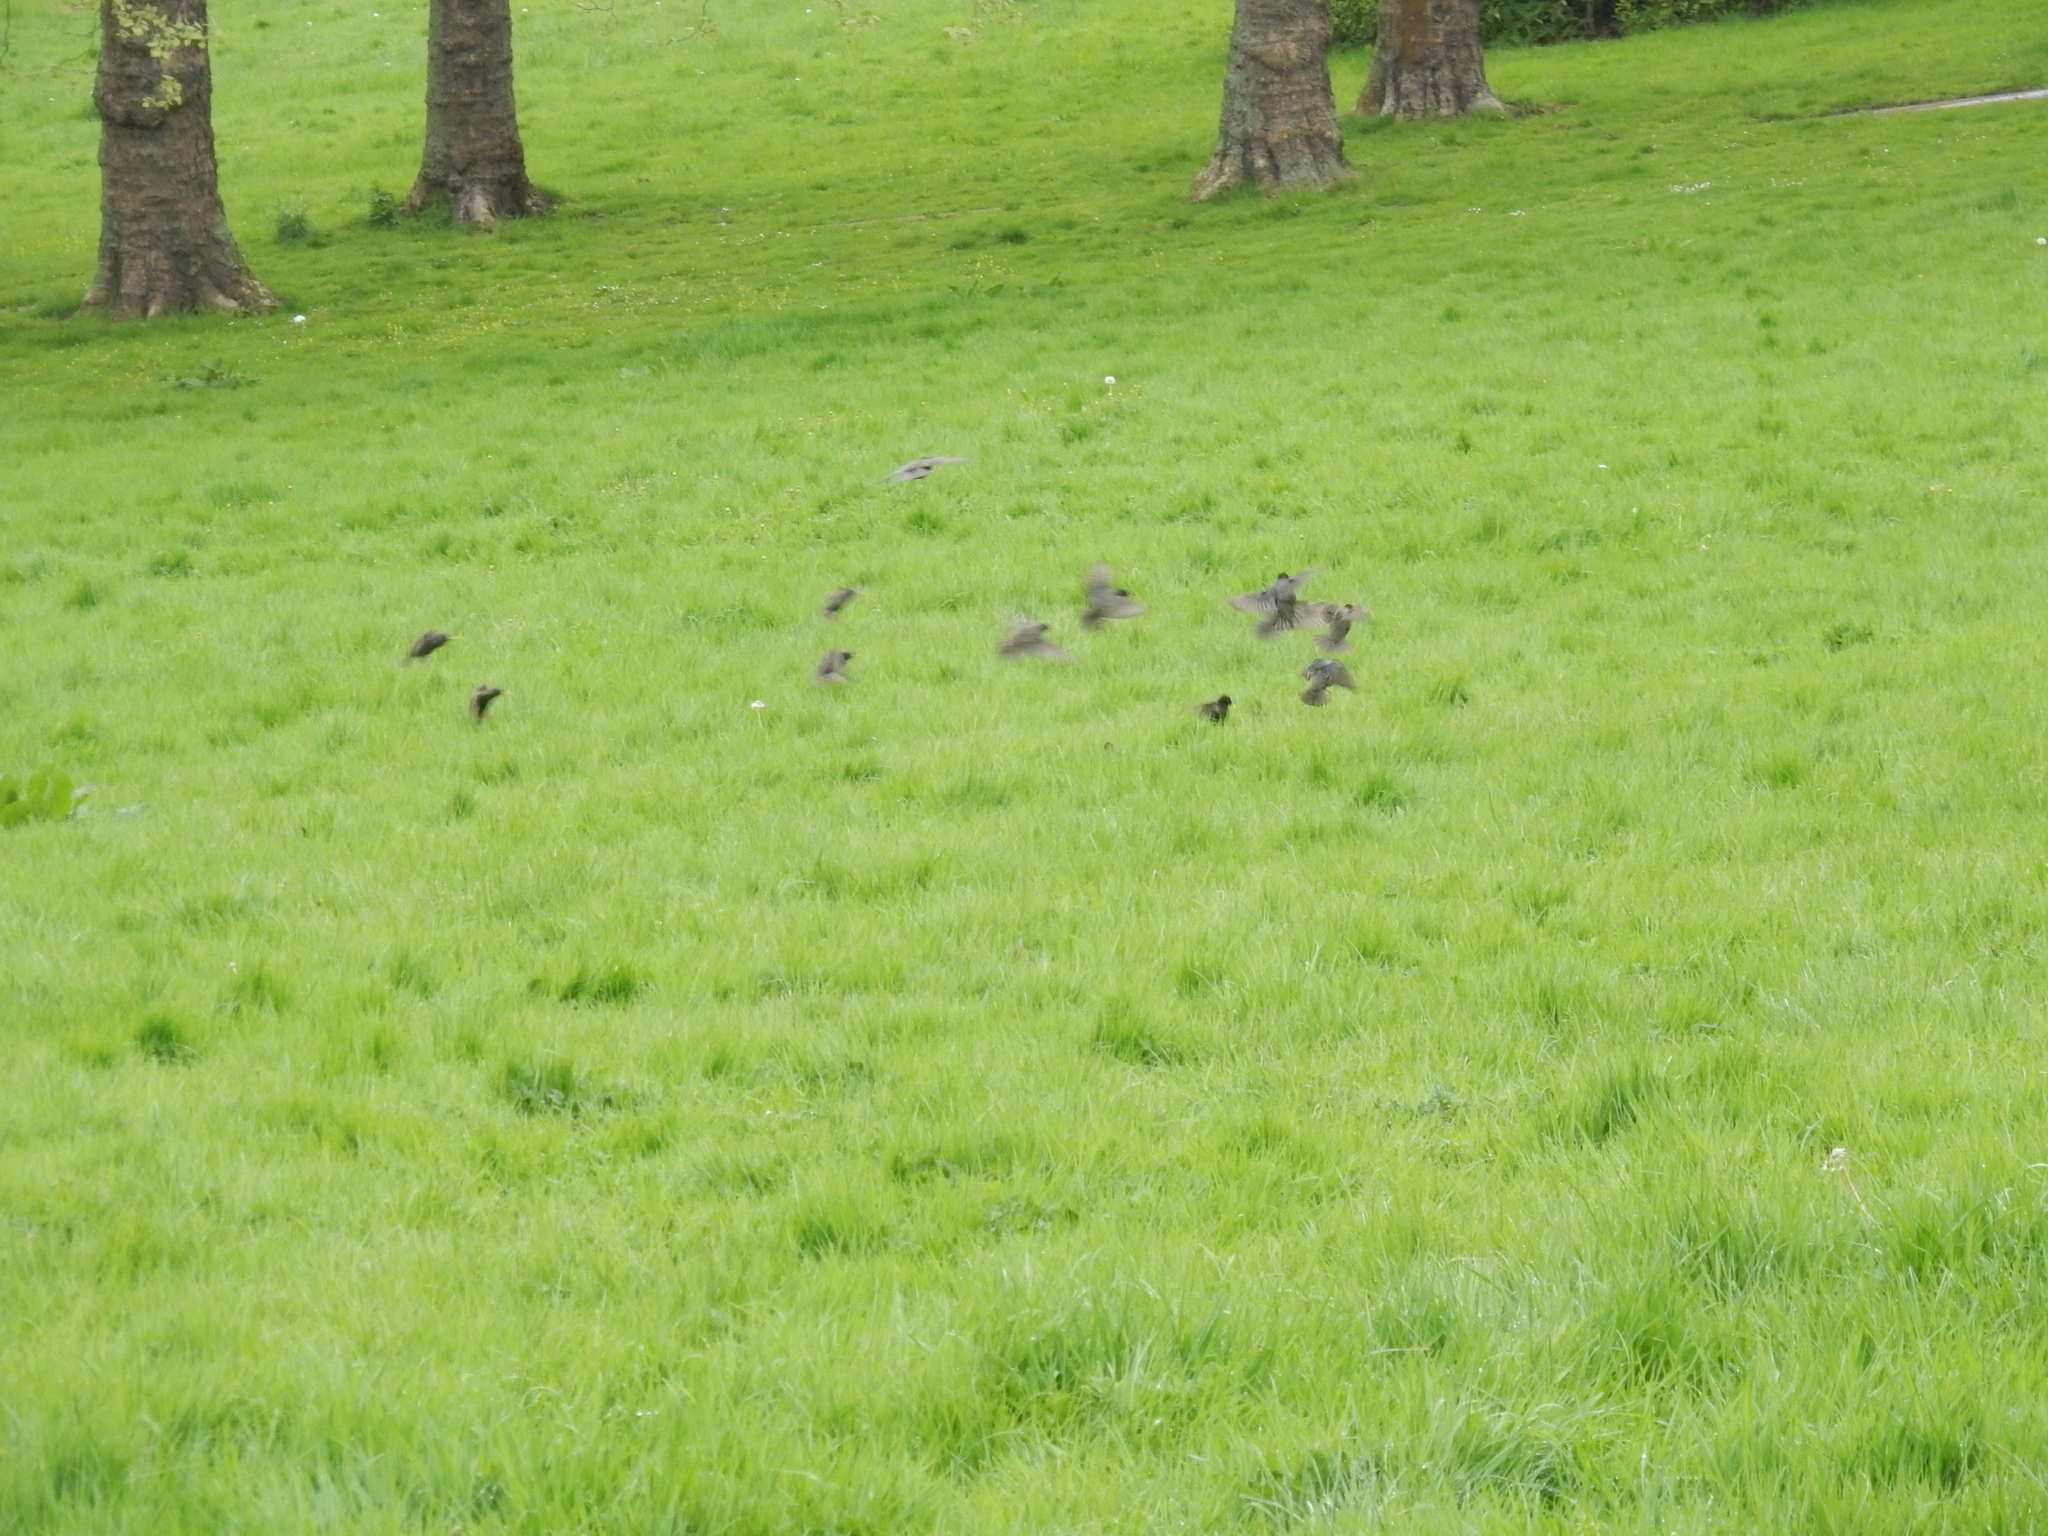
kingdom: Animalia
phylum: Chordata
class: Aves
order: Passeriformes
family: Sturnidae
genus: Sturnus
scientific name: Sturnus vulgaris
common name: Common starling
